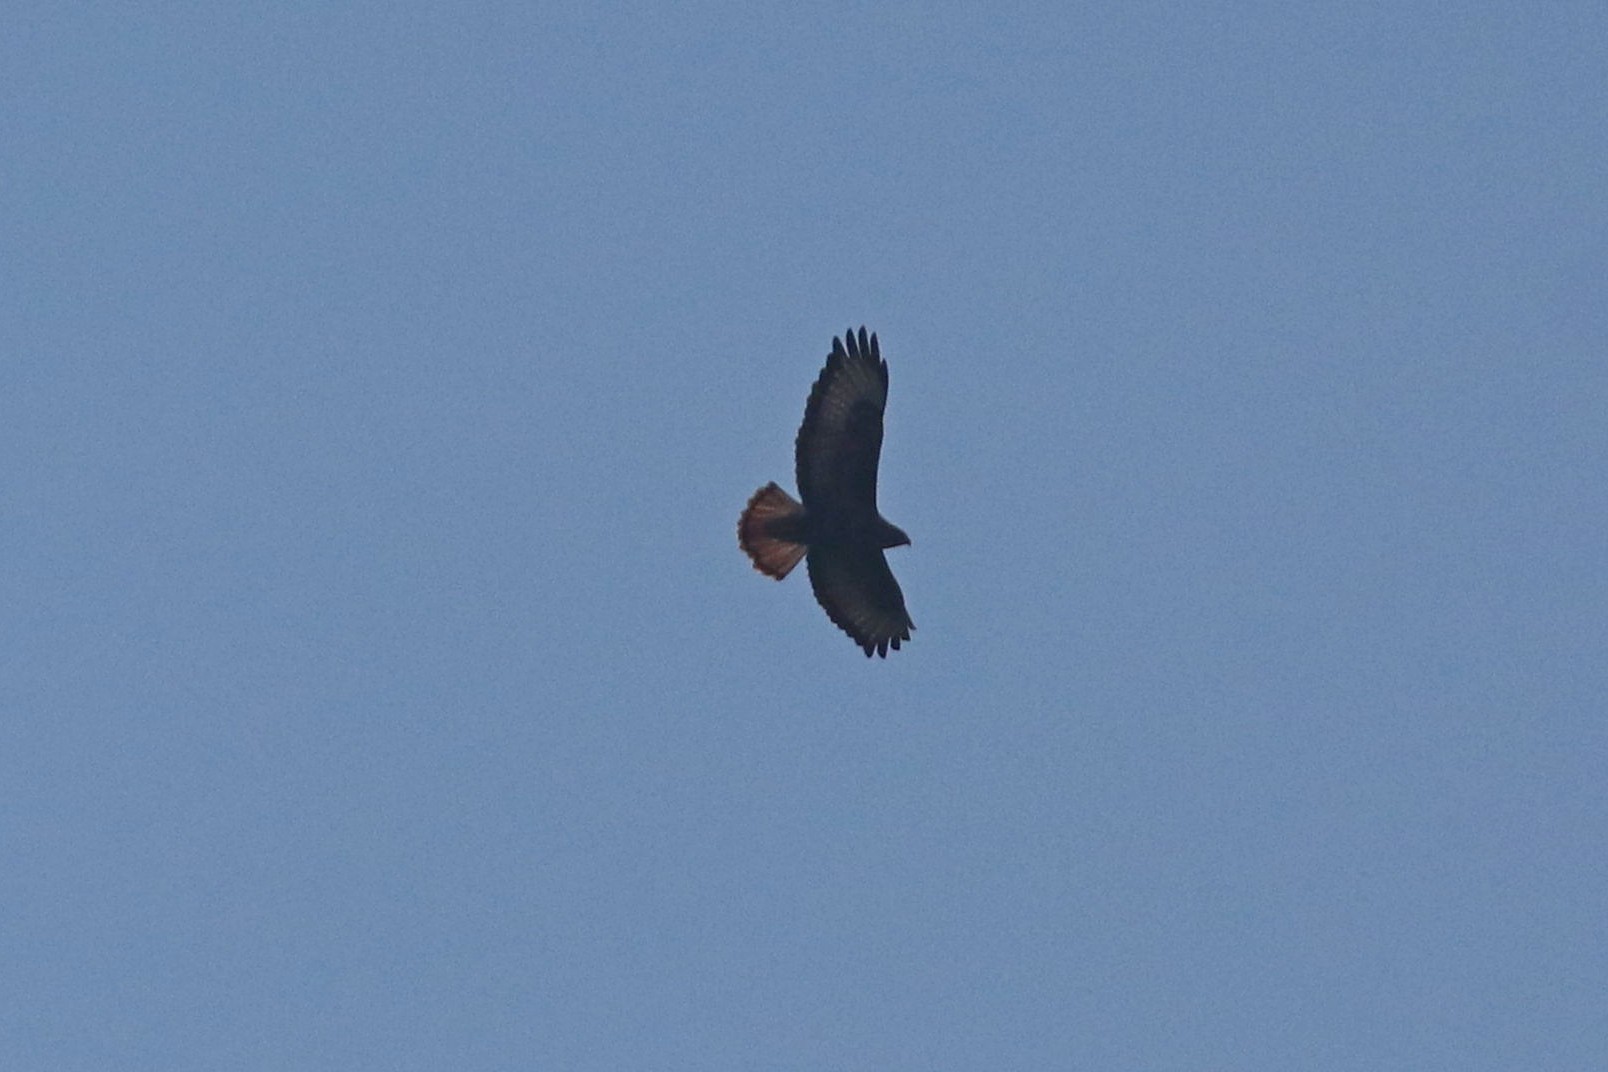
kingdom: Animalia
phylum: Chordata
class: Aves
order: Accipitriformes
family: Accipitridae
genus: Buteo
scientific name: Buteo buteo
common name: Common buzzard
